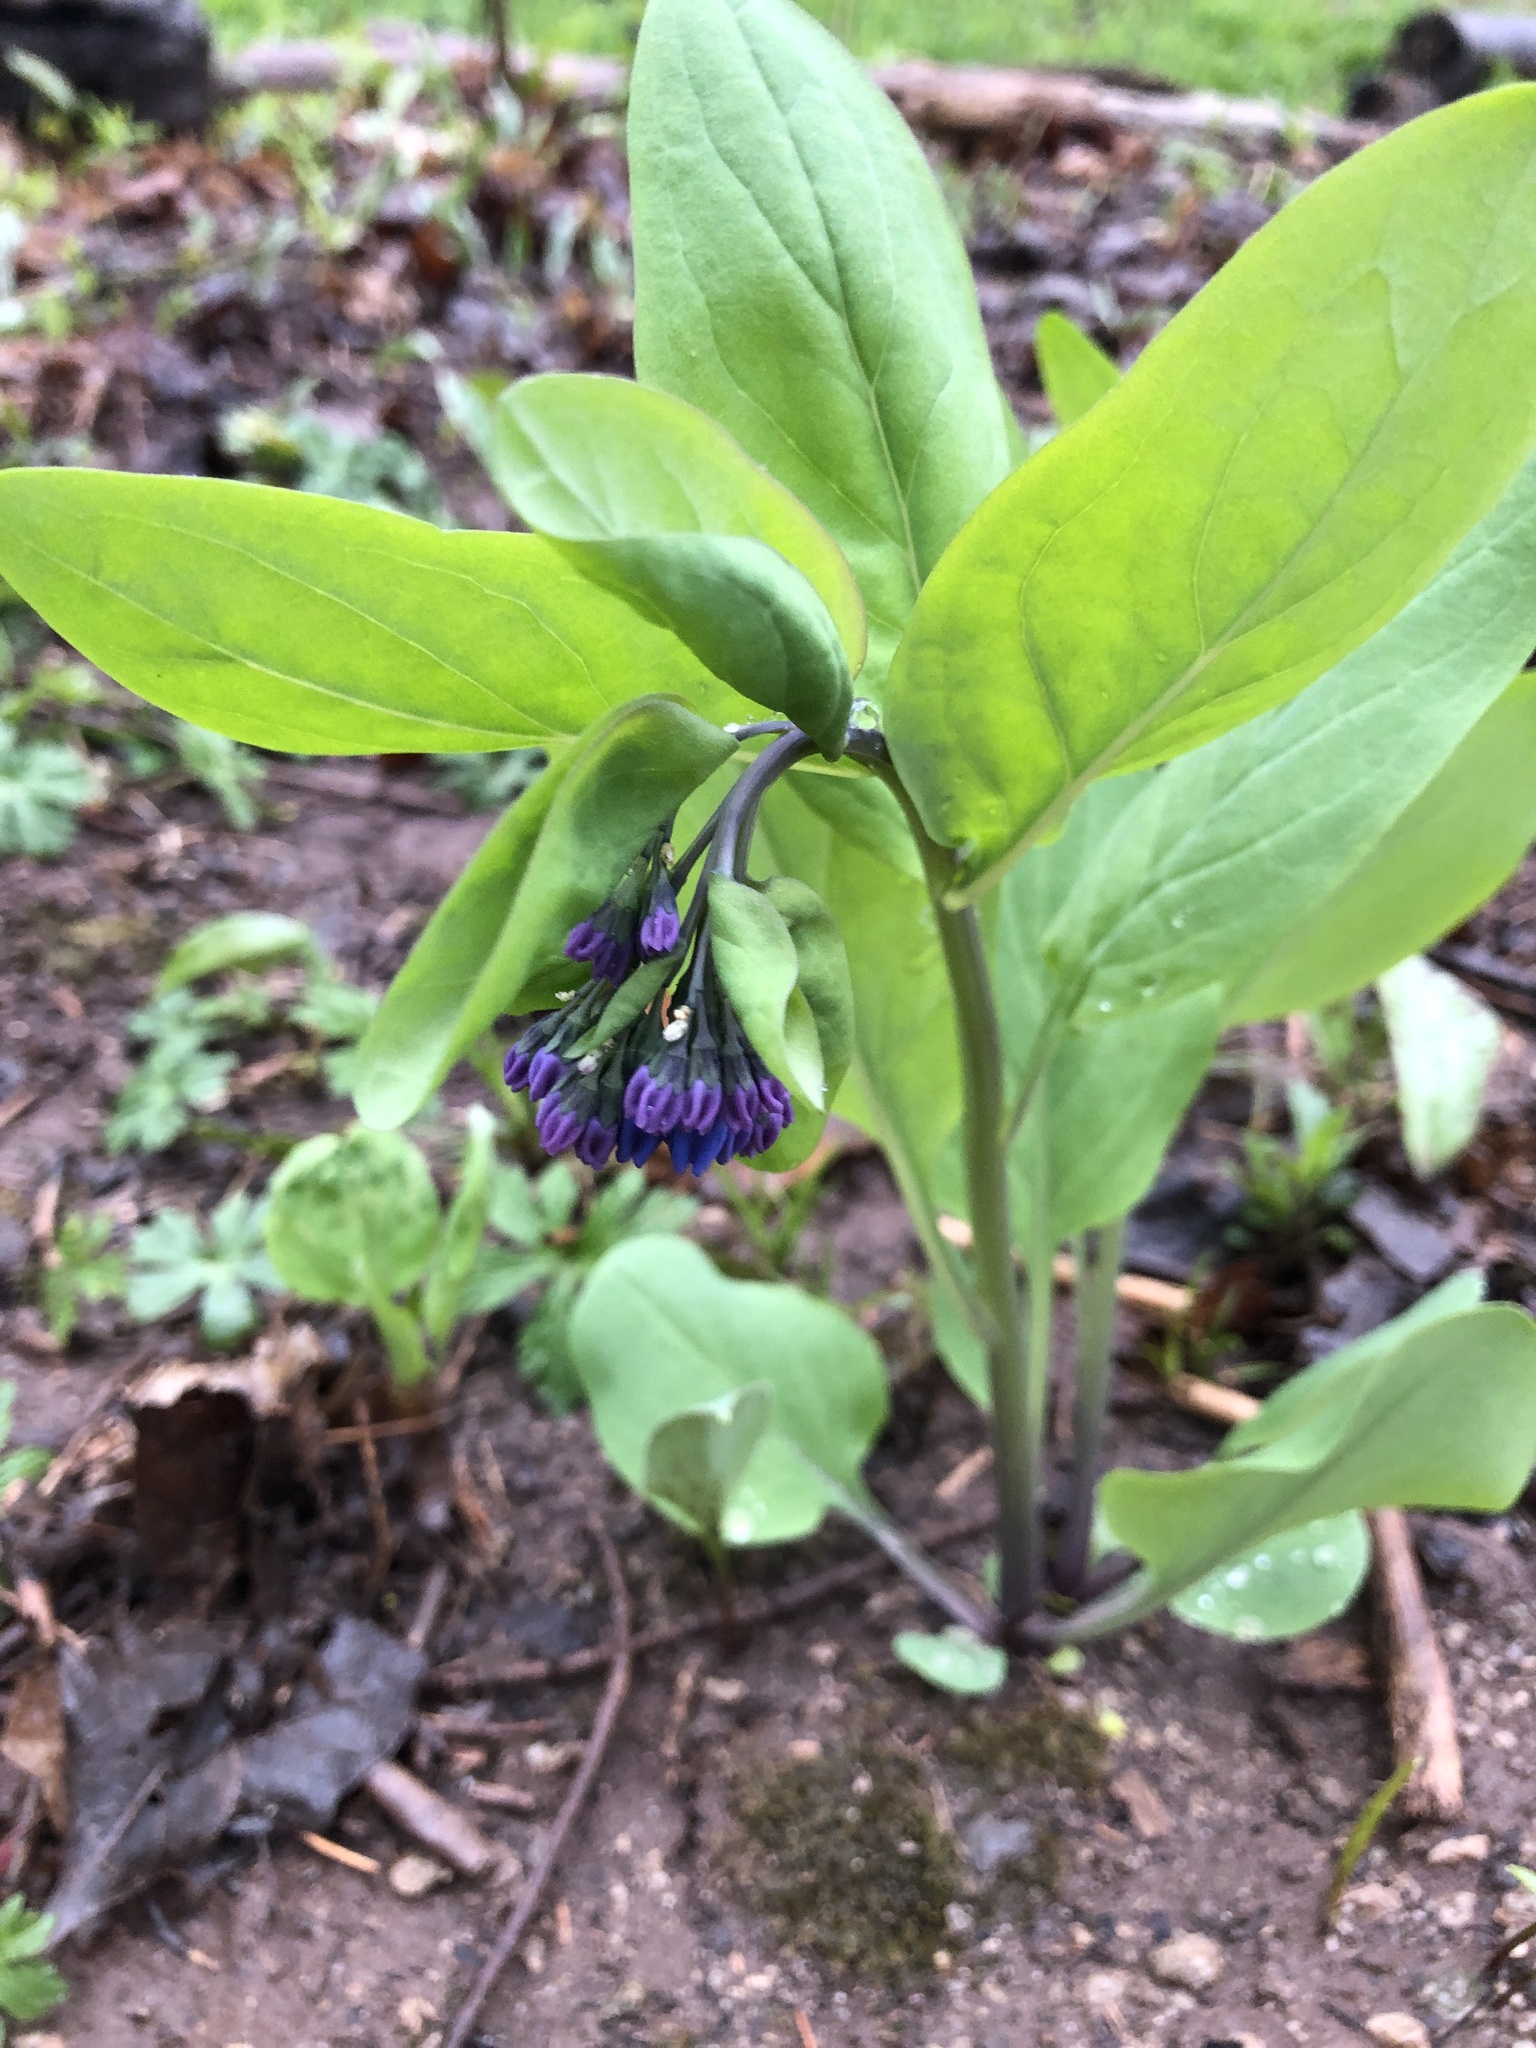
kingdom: Plantae
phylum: Tracheophyta
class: Magnoliopsida
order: Boraginales
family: Boraginaceae
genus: Mertensia
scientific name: Mertensia virginica
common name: Virginia bluebells
